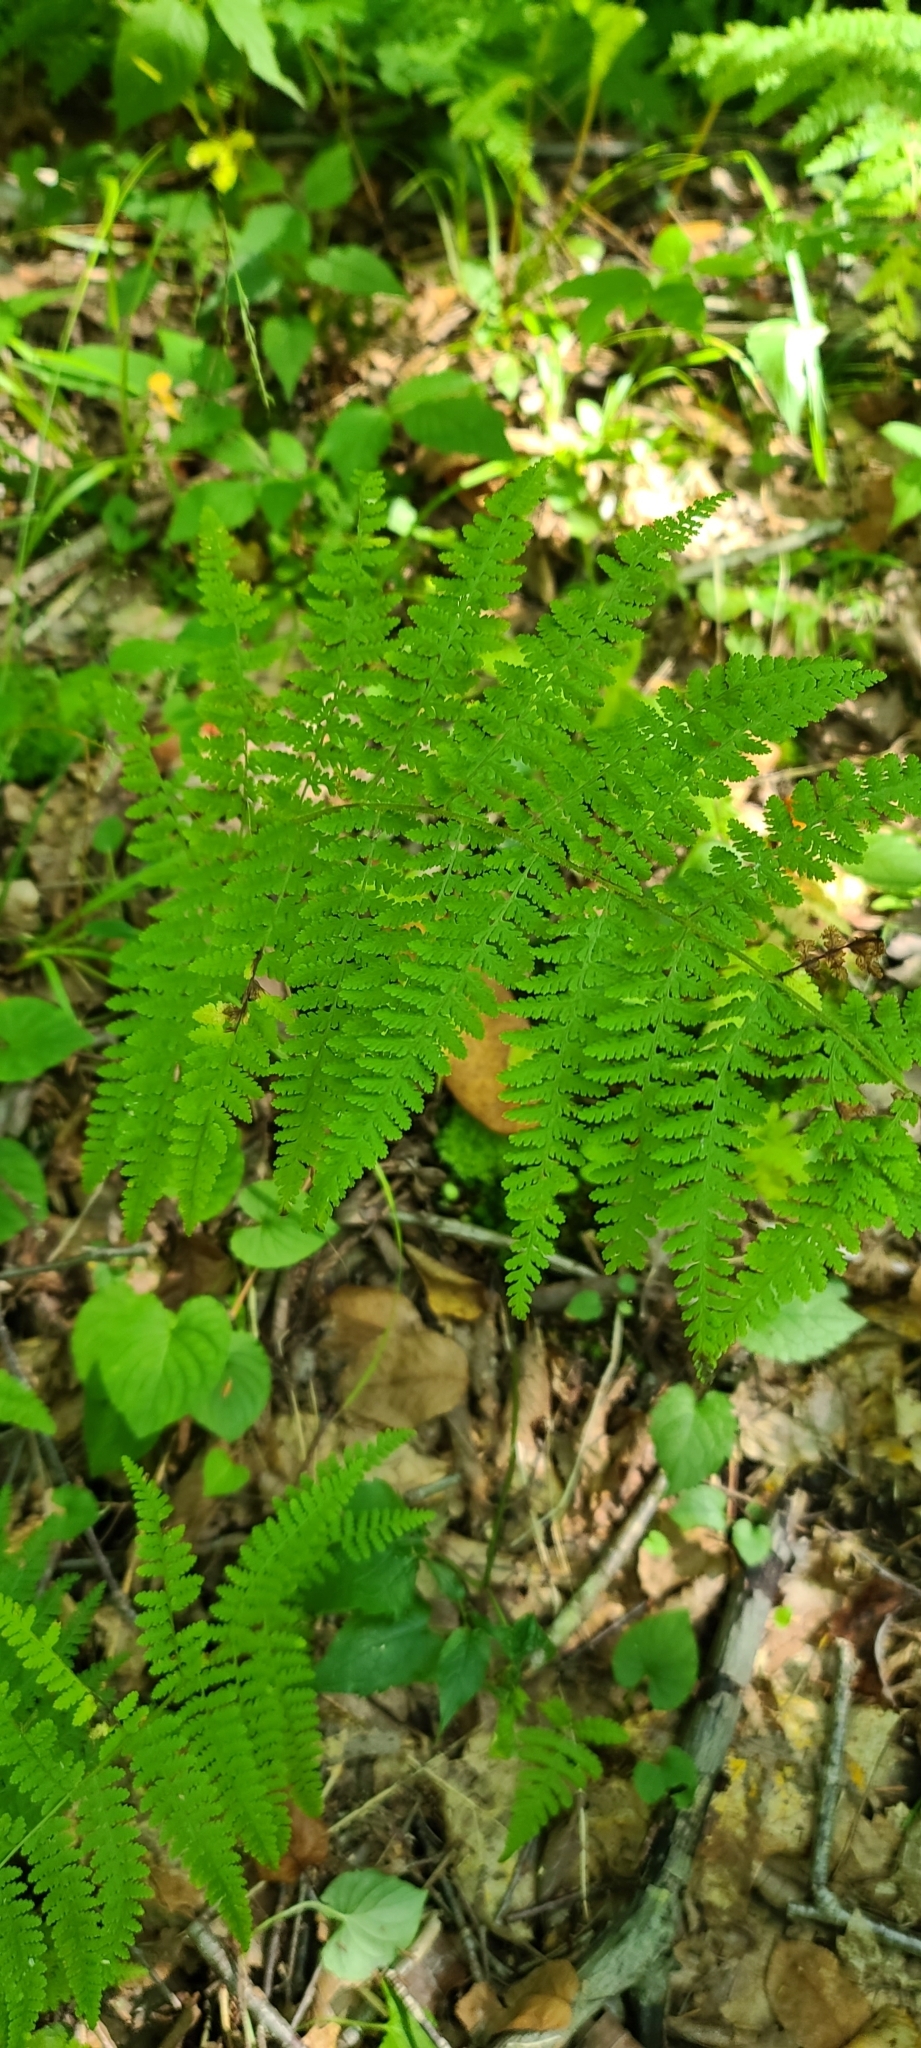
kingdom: Plantae
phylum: Tracheophyta
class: Polypodiopsida
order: Polypodiales
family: Dennstaedtiaceae
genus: Sitobolium
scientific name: Sitobolium punctilobum
